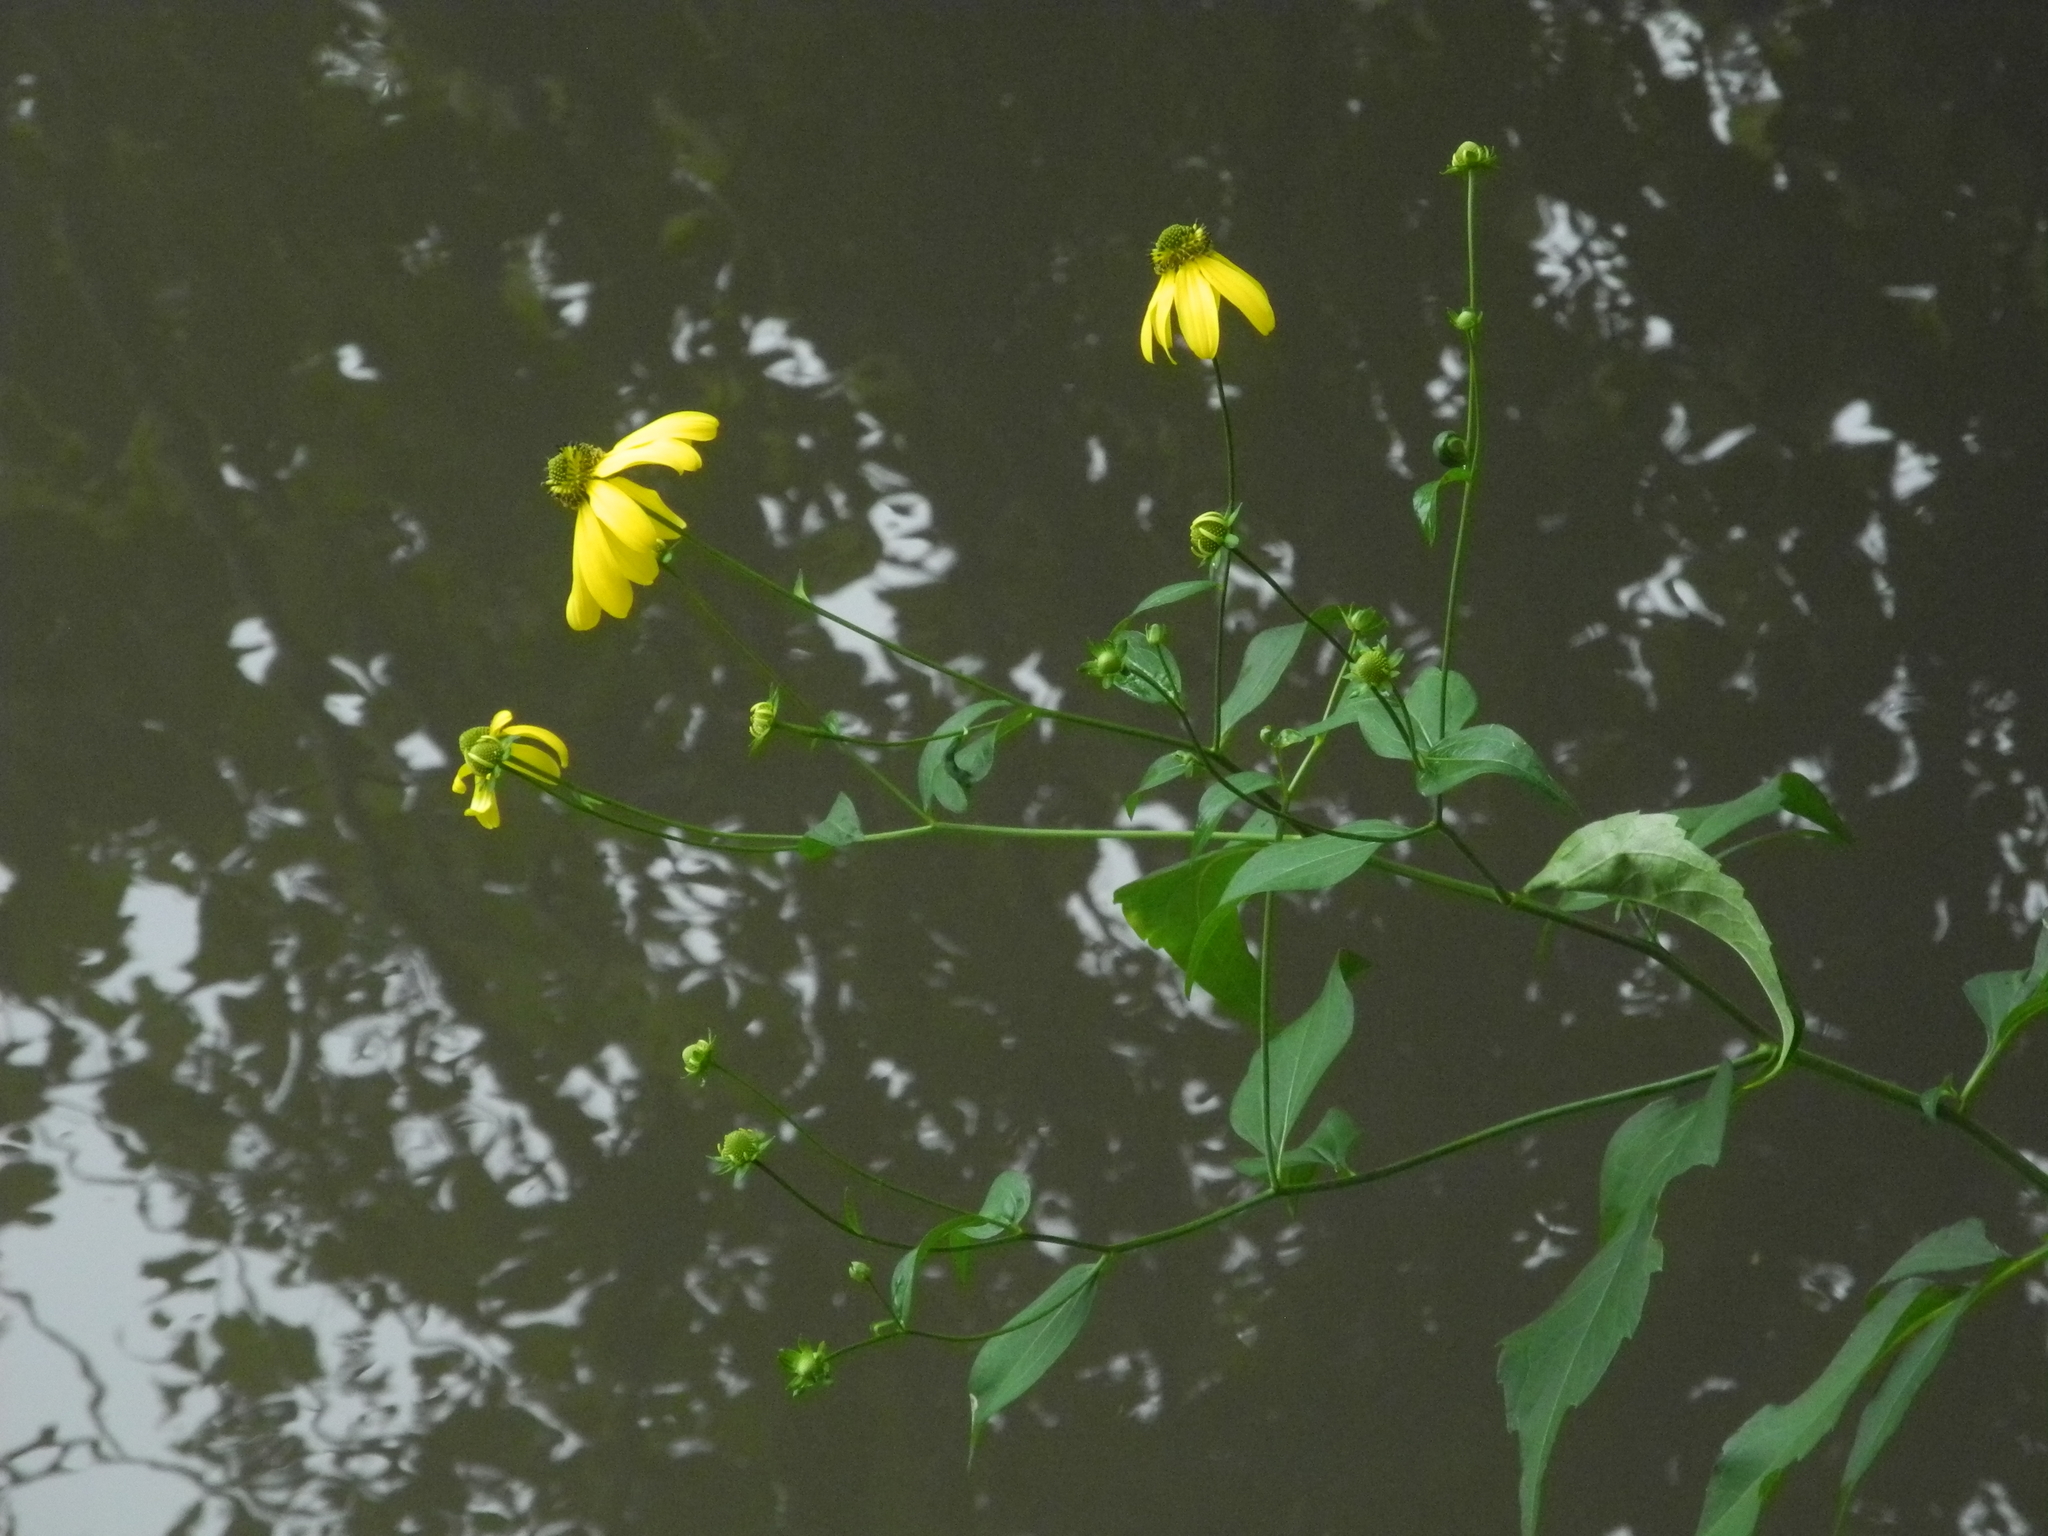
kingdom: Plantae
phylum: Tracheophyta
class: Magnoliopsida
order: Asterales
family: Asteraceae
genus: Rudbeckia
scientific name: Rudbeckia laciniata
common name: Coneflower
